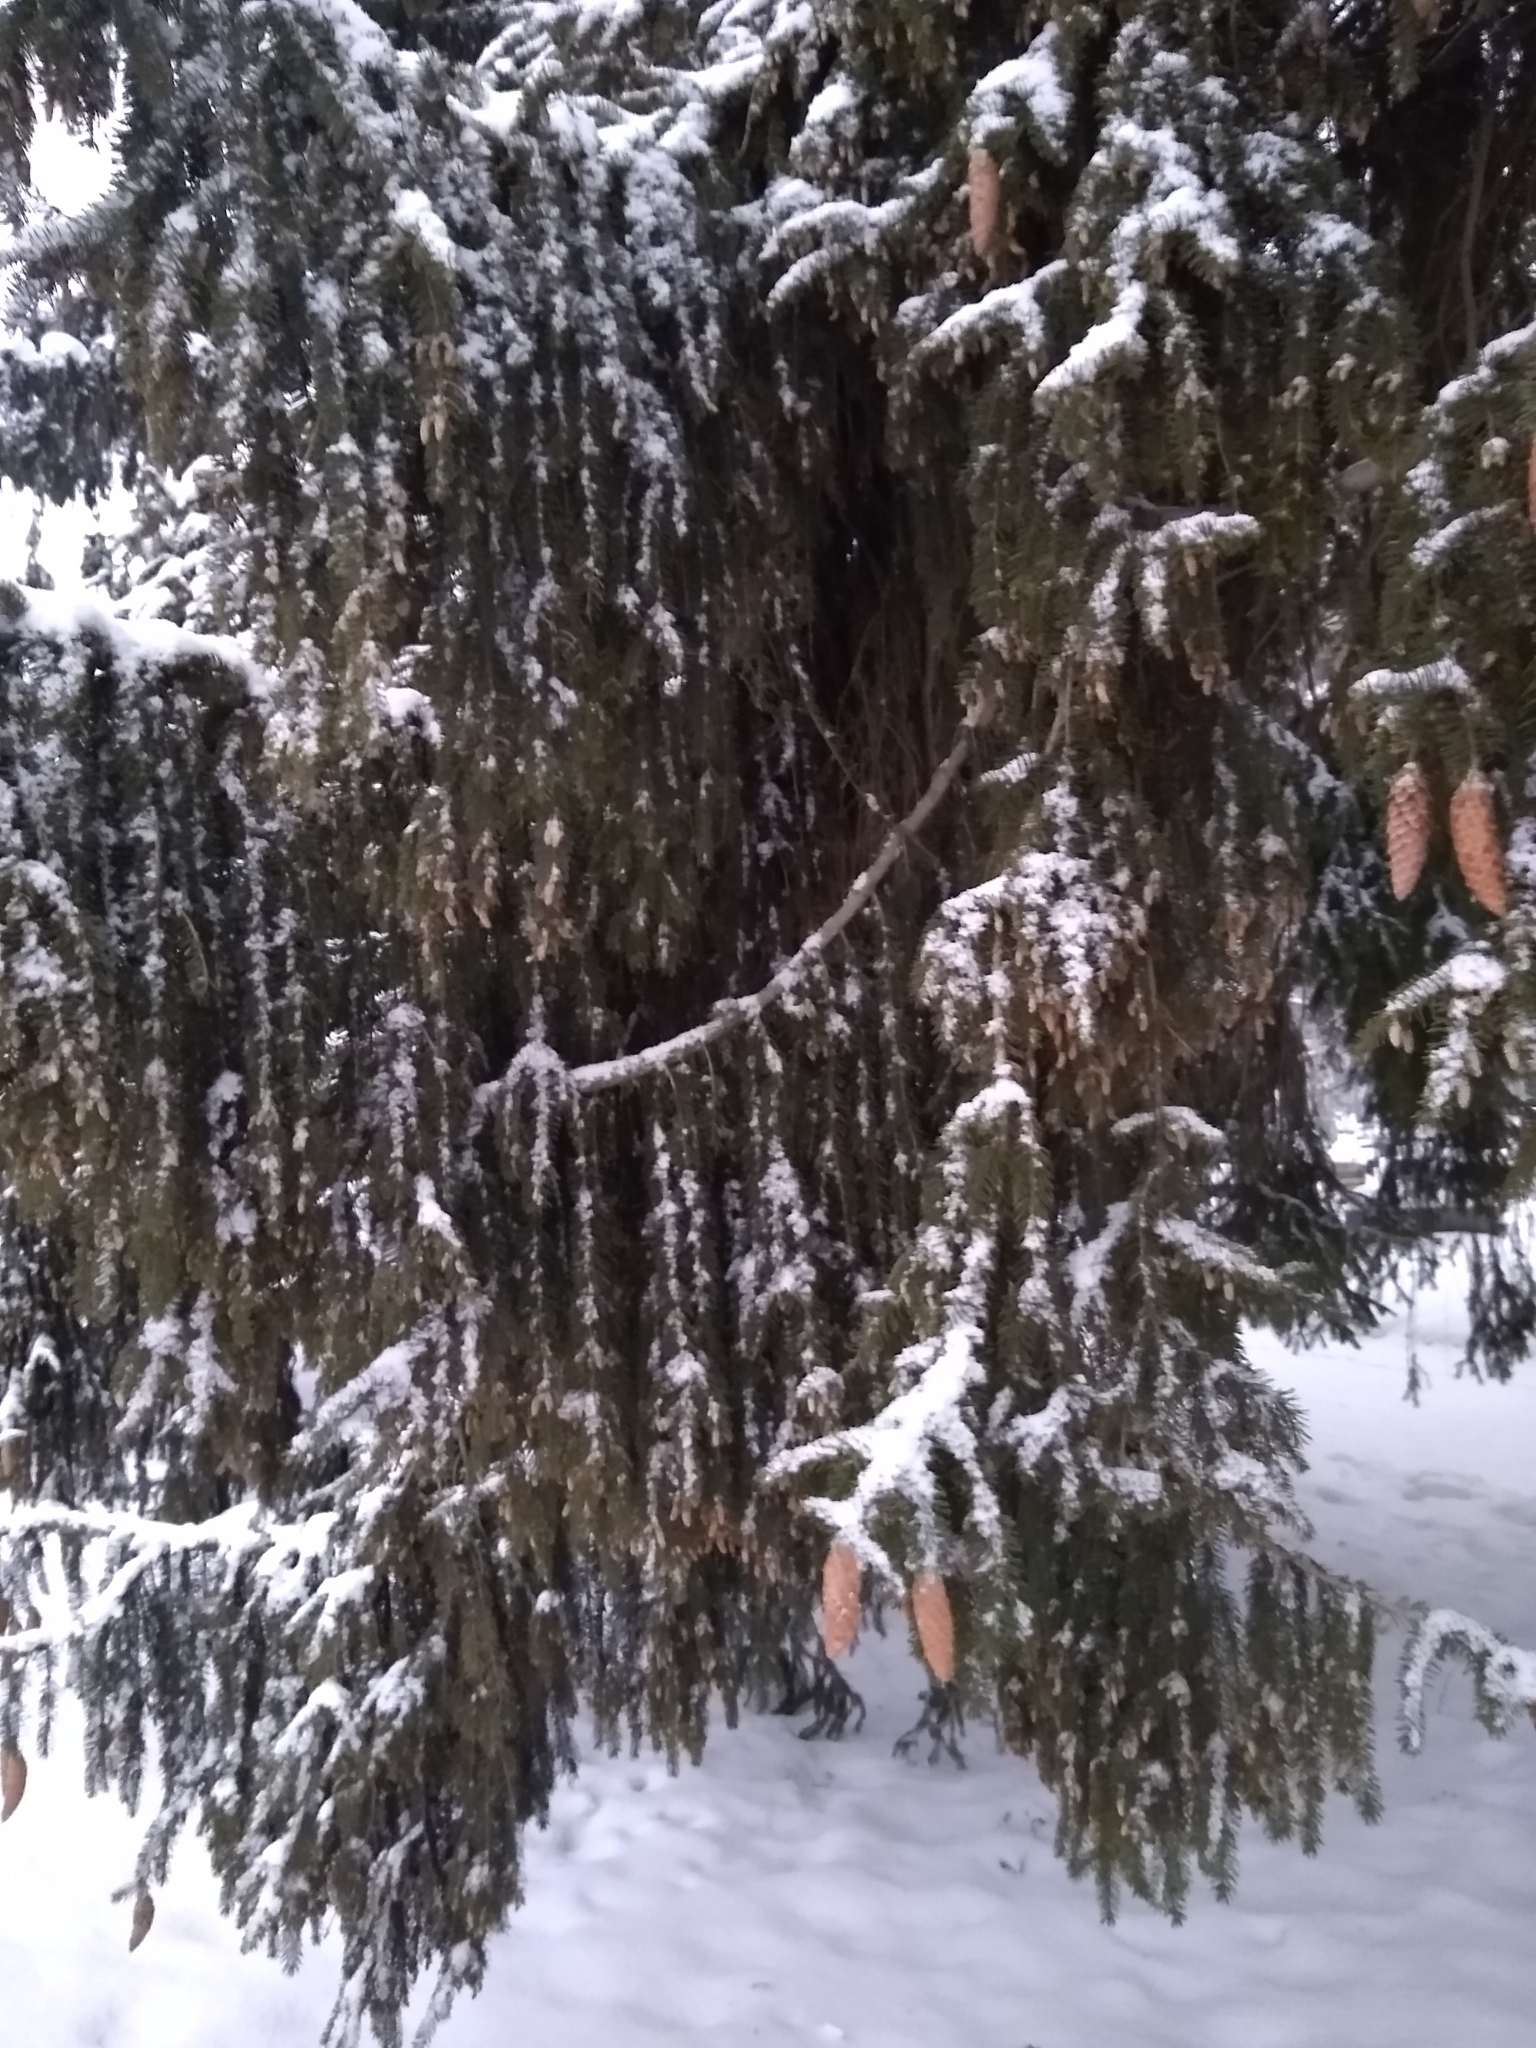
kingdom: Plantae
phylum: Tracheophyta
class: Pinopsida
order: Pinales
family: Pinaceae
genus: Picea
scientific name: Picea abies
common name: Norway spruce
